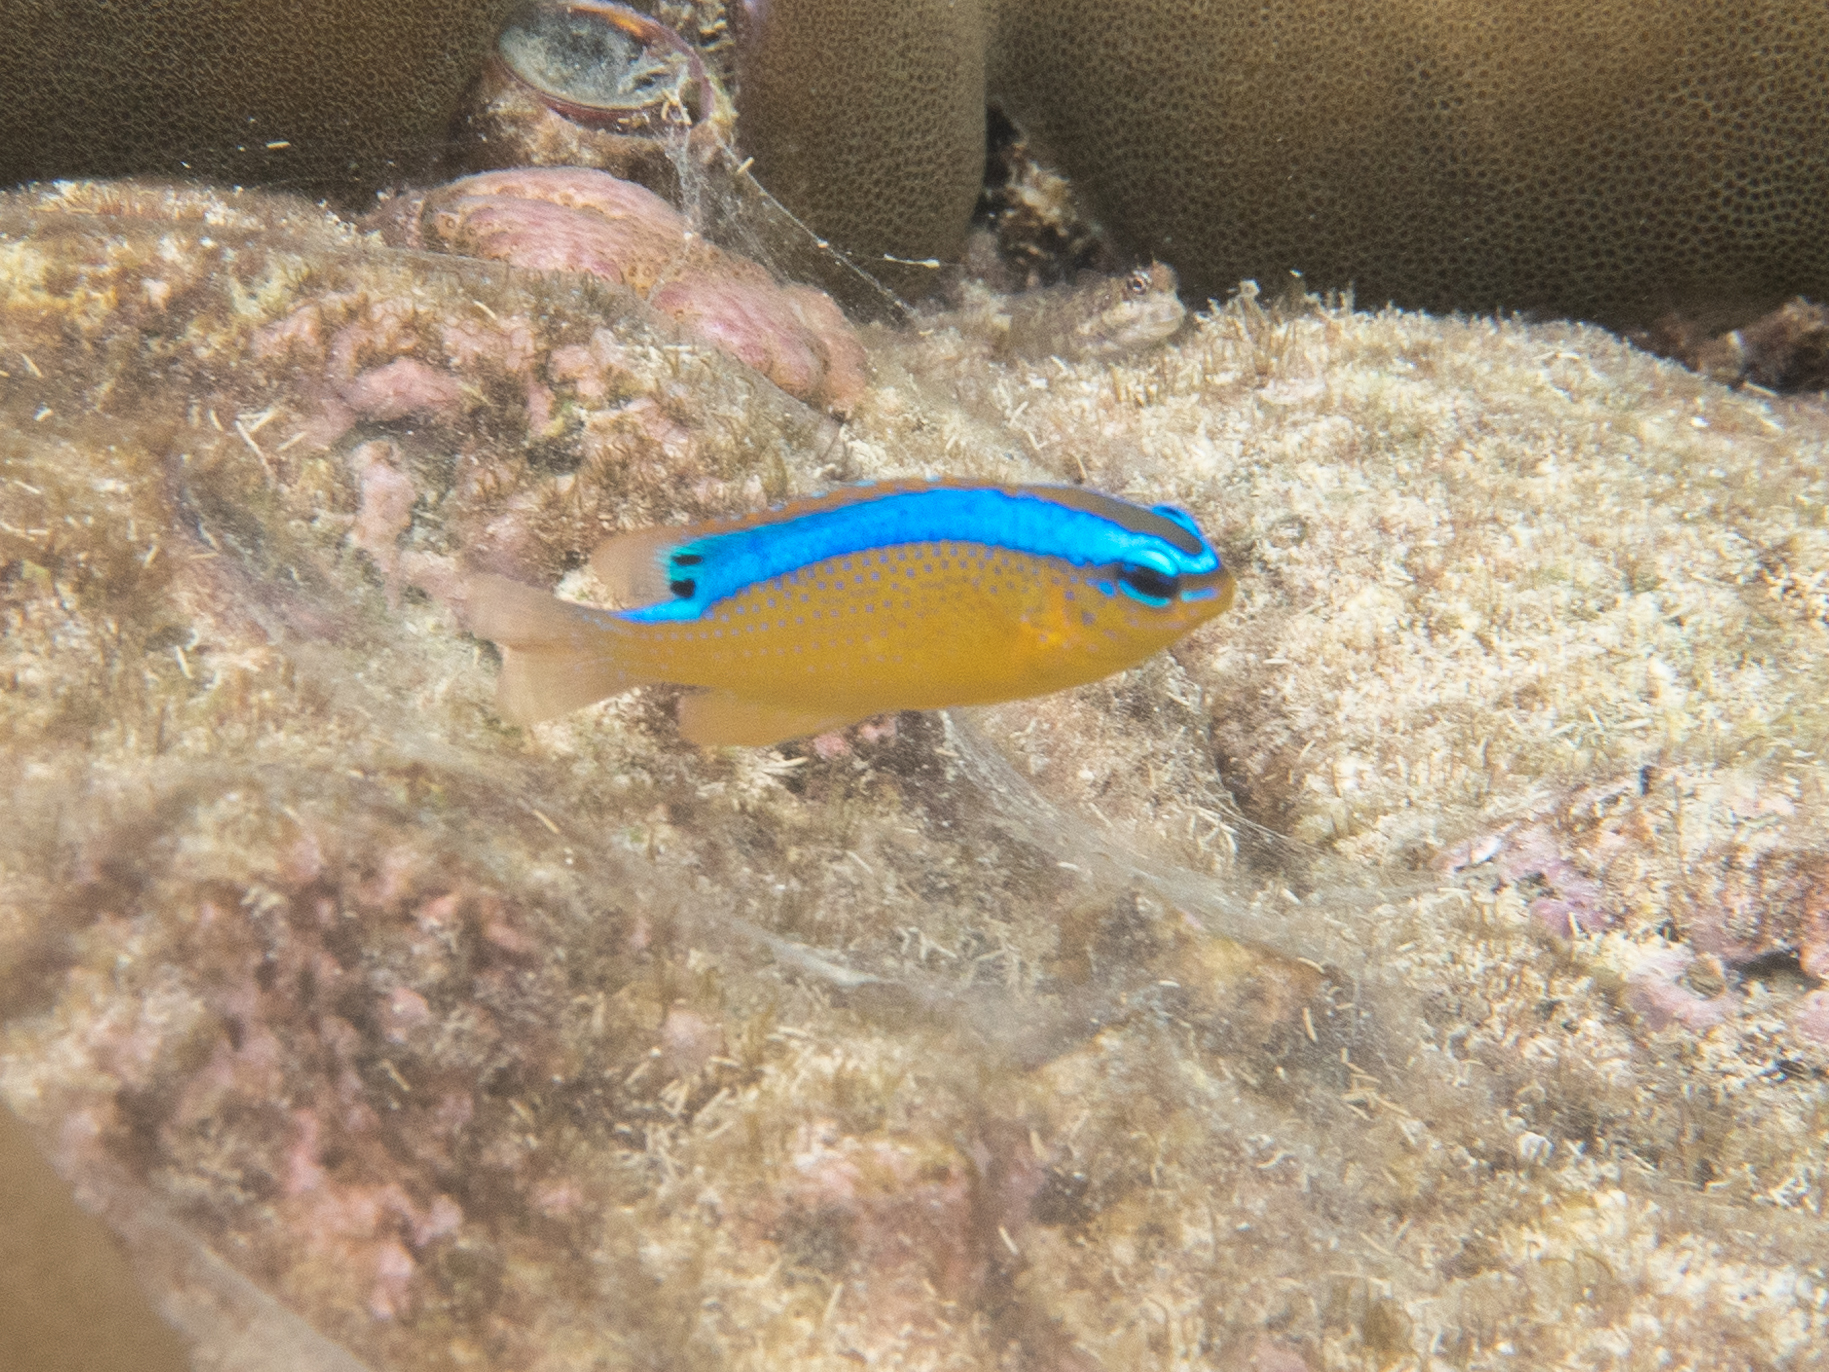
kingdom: Animalia
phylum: Chordata
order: Perciformes
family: Pomacentridae
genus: Chrysiptera
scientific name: Chrysiptera brownriggii
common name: Surge demoiselle
